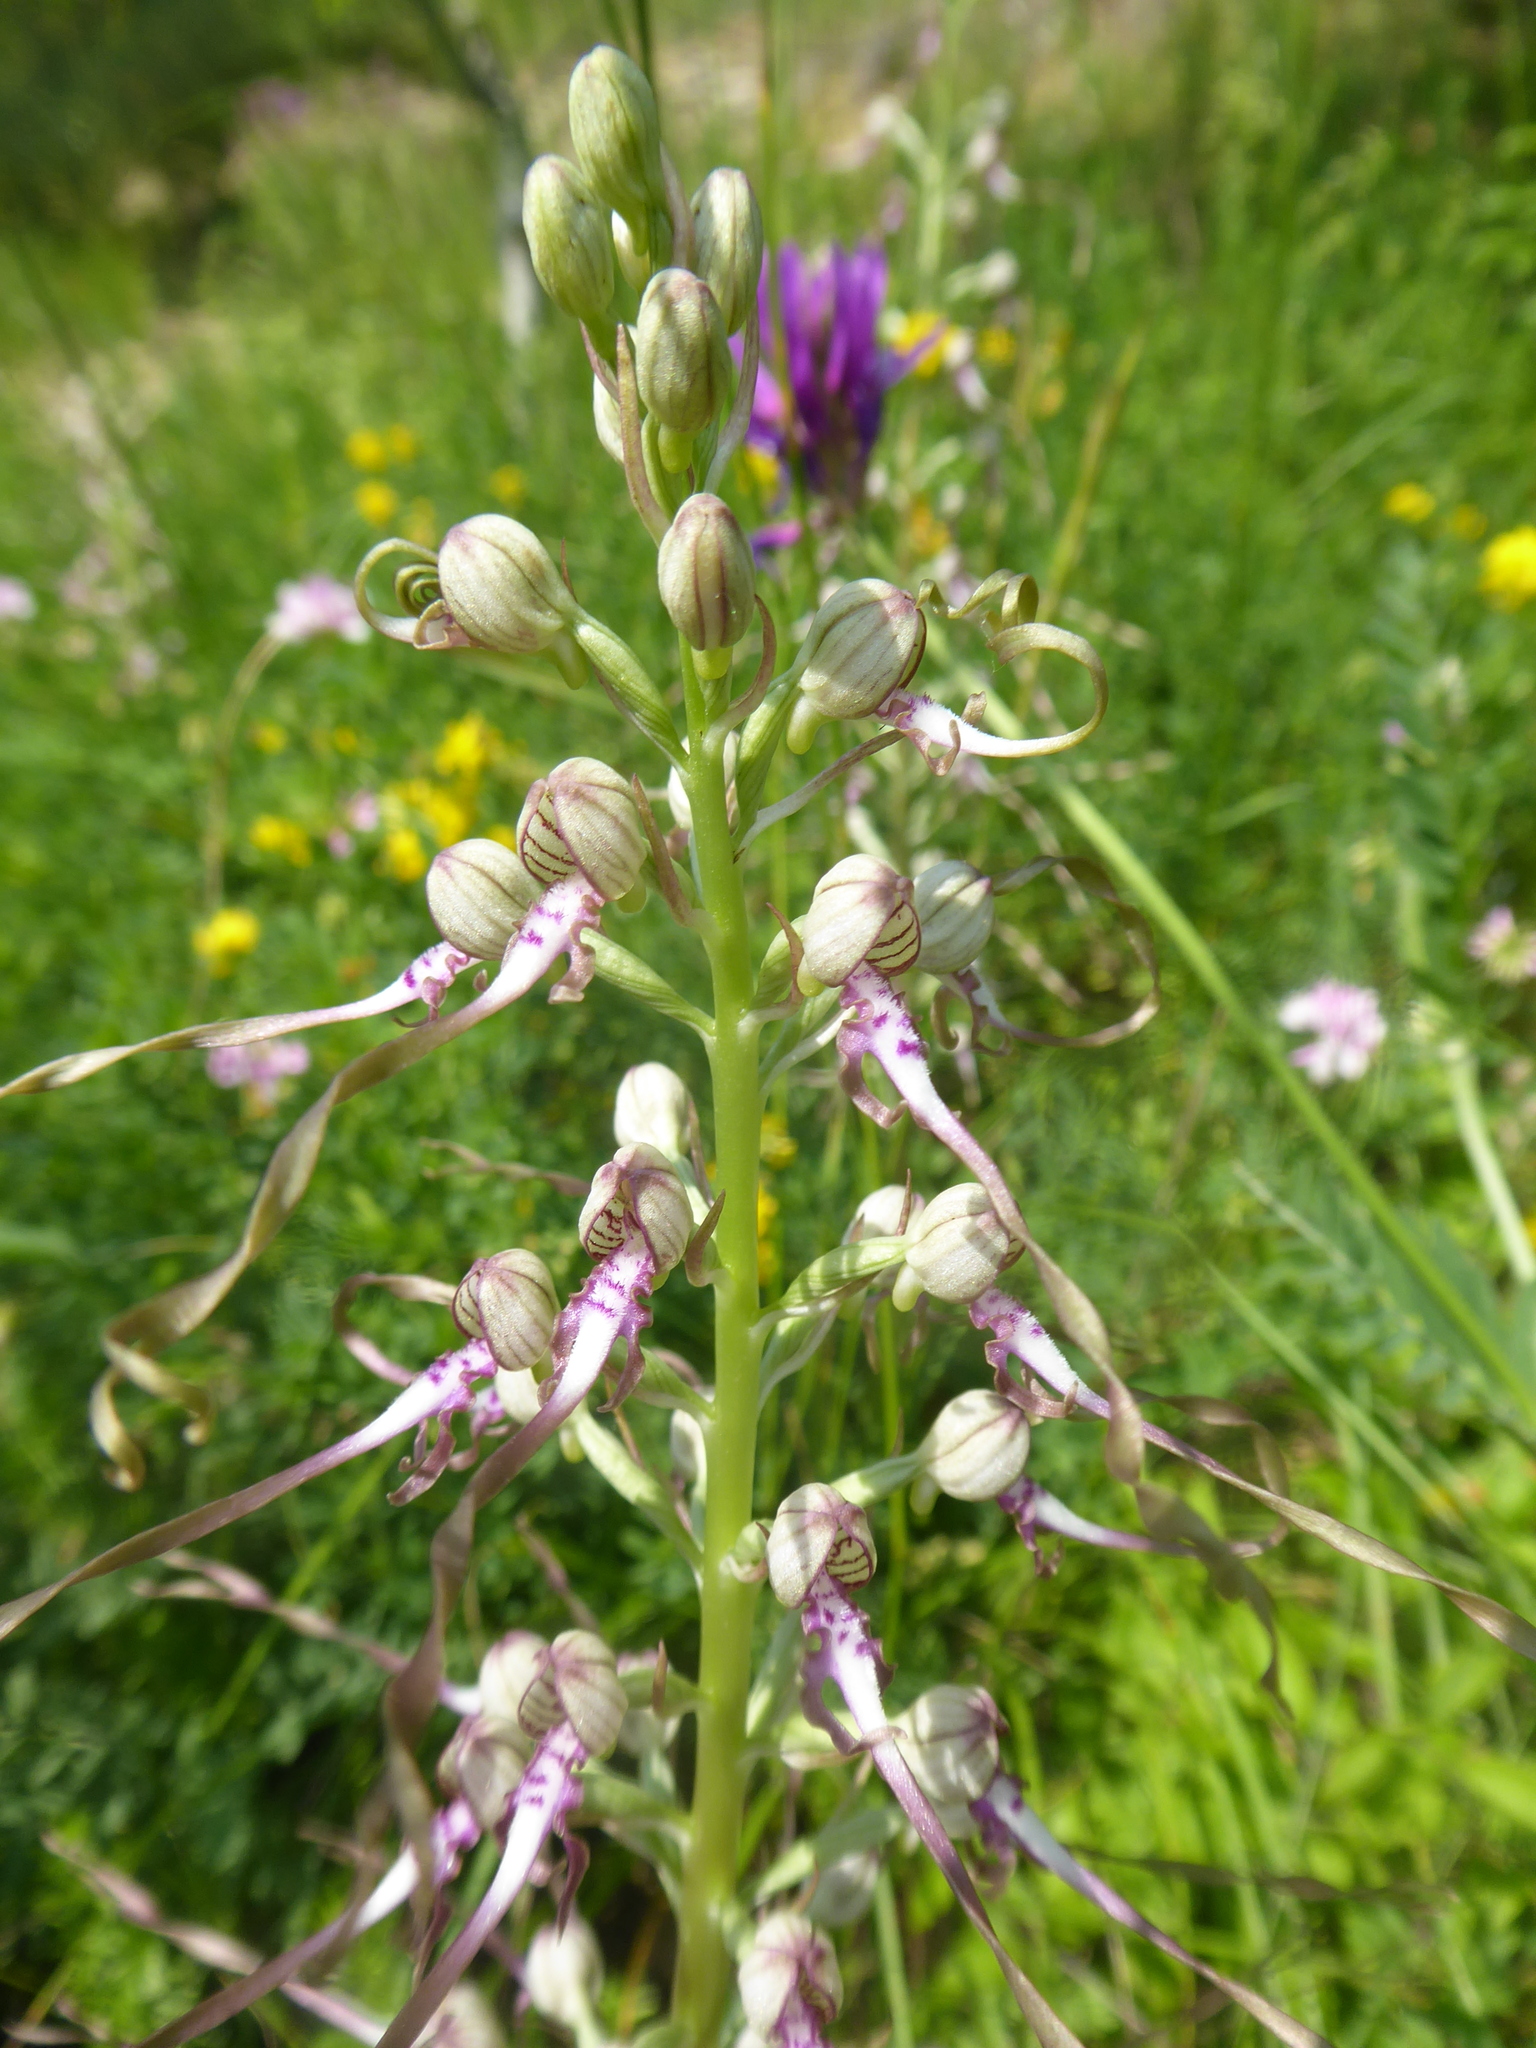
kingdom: Plantae
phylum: Tracheophyta
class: Liliopsida
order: Asparagales
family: Orchidaceae
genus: Himantoglossum
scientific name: Himantoglossum adriaticum
